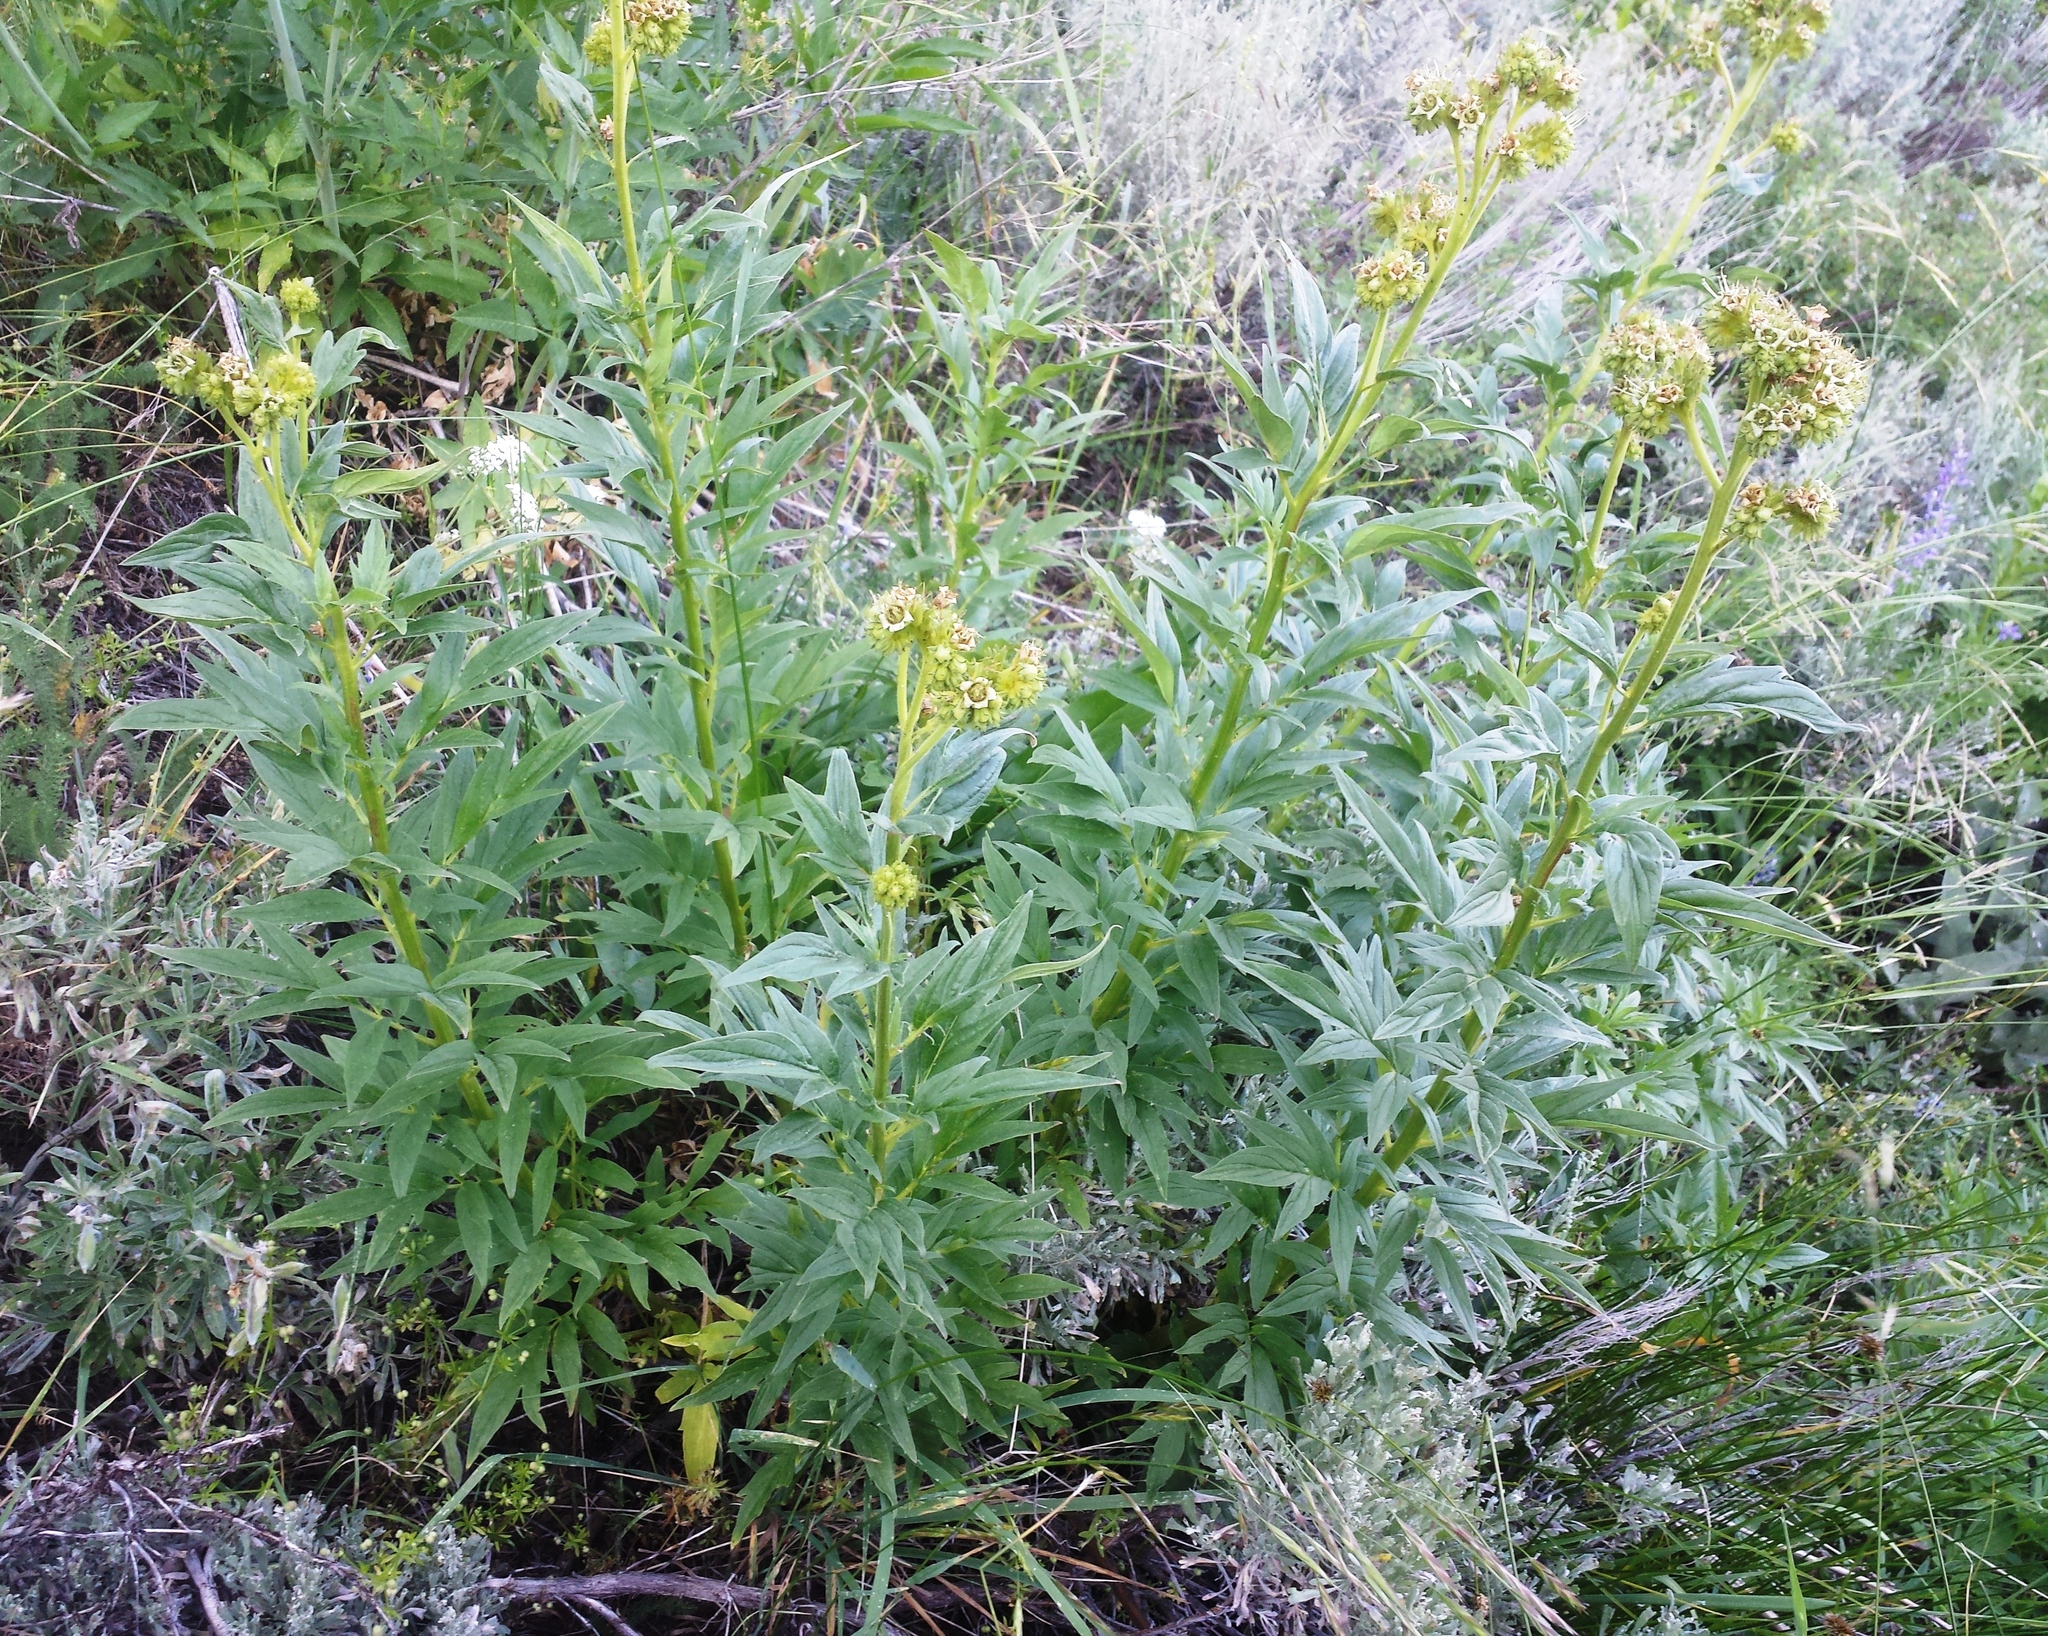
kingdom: Plantae
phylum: Tracheophyta
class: Magnoliopsida
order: Boraginales
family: Hydrophyllaceae
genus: Phacelia
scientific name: Phacelia procera
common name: Tall phacelia
